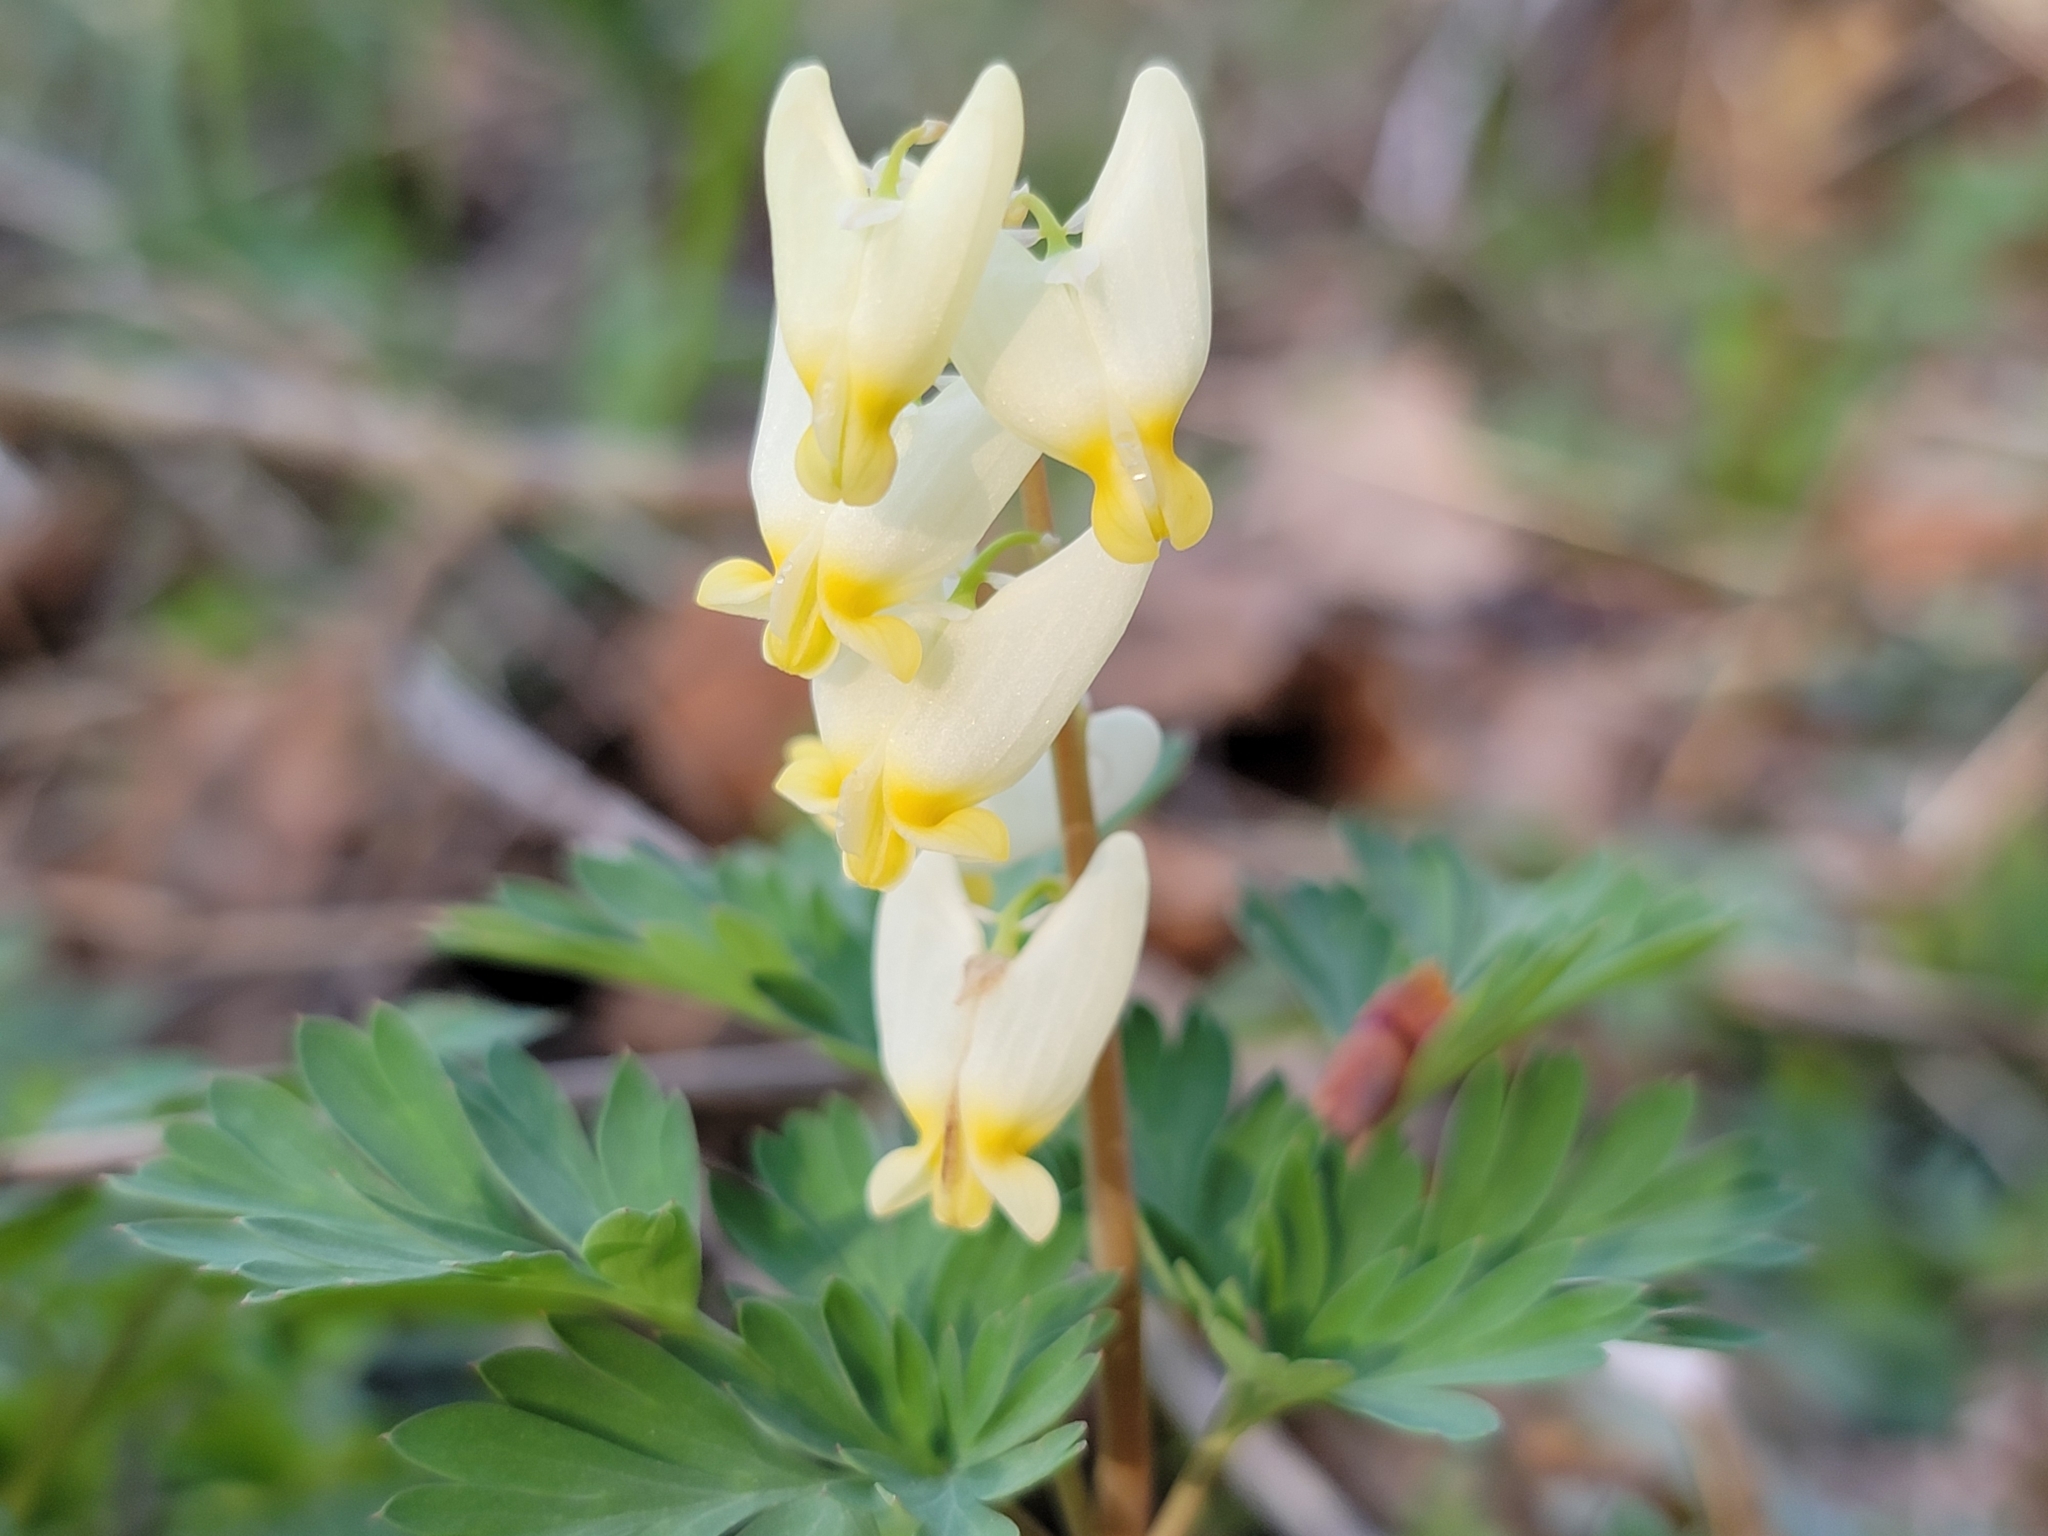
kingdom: Plantae
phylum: Tracheophyta
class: Magnoliopsida
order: Ranunculales
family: Papaveraceae
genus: Dicentra
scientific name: Dicentra cucullaria
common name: Dutchman's breeches
